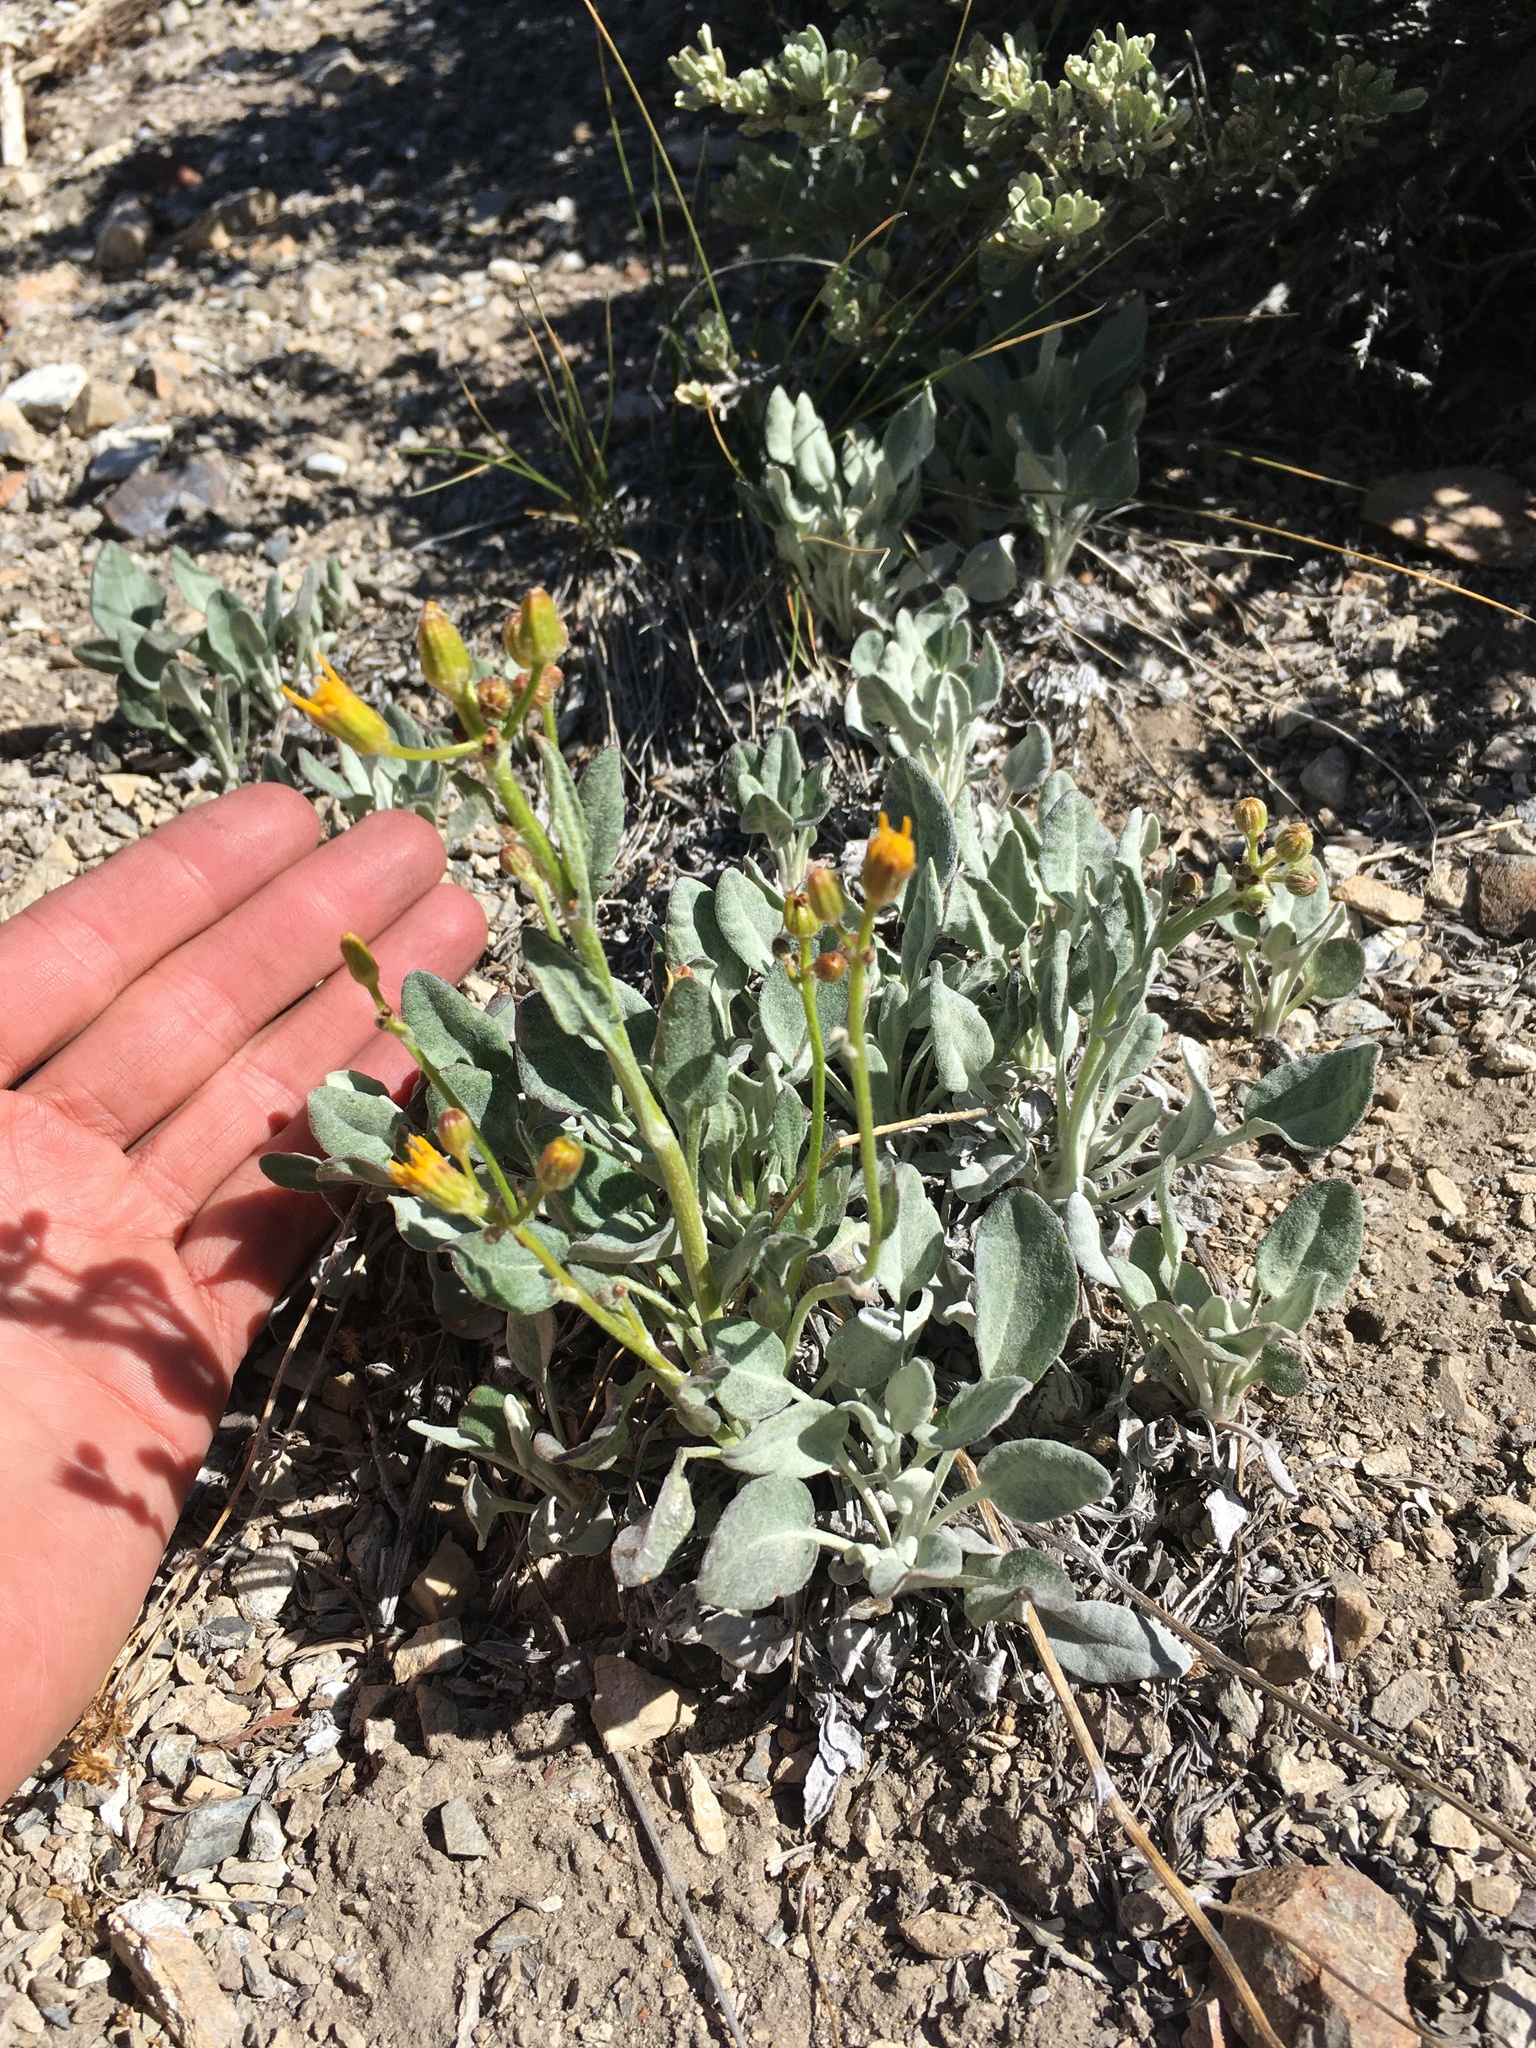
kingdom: Plantae
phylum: Tracheophyta
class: Magnoliopsida
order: Asterales
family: Asteraceae
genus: Packera
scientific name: Packera cana
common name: Woolly groundsel
